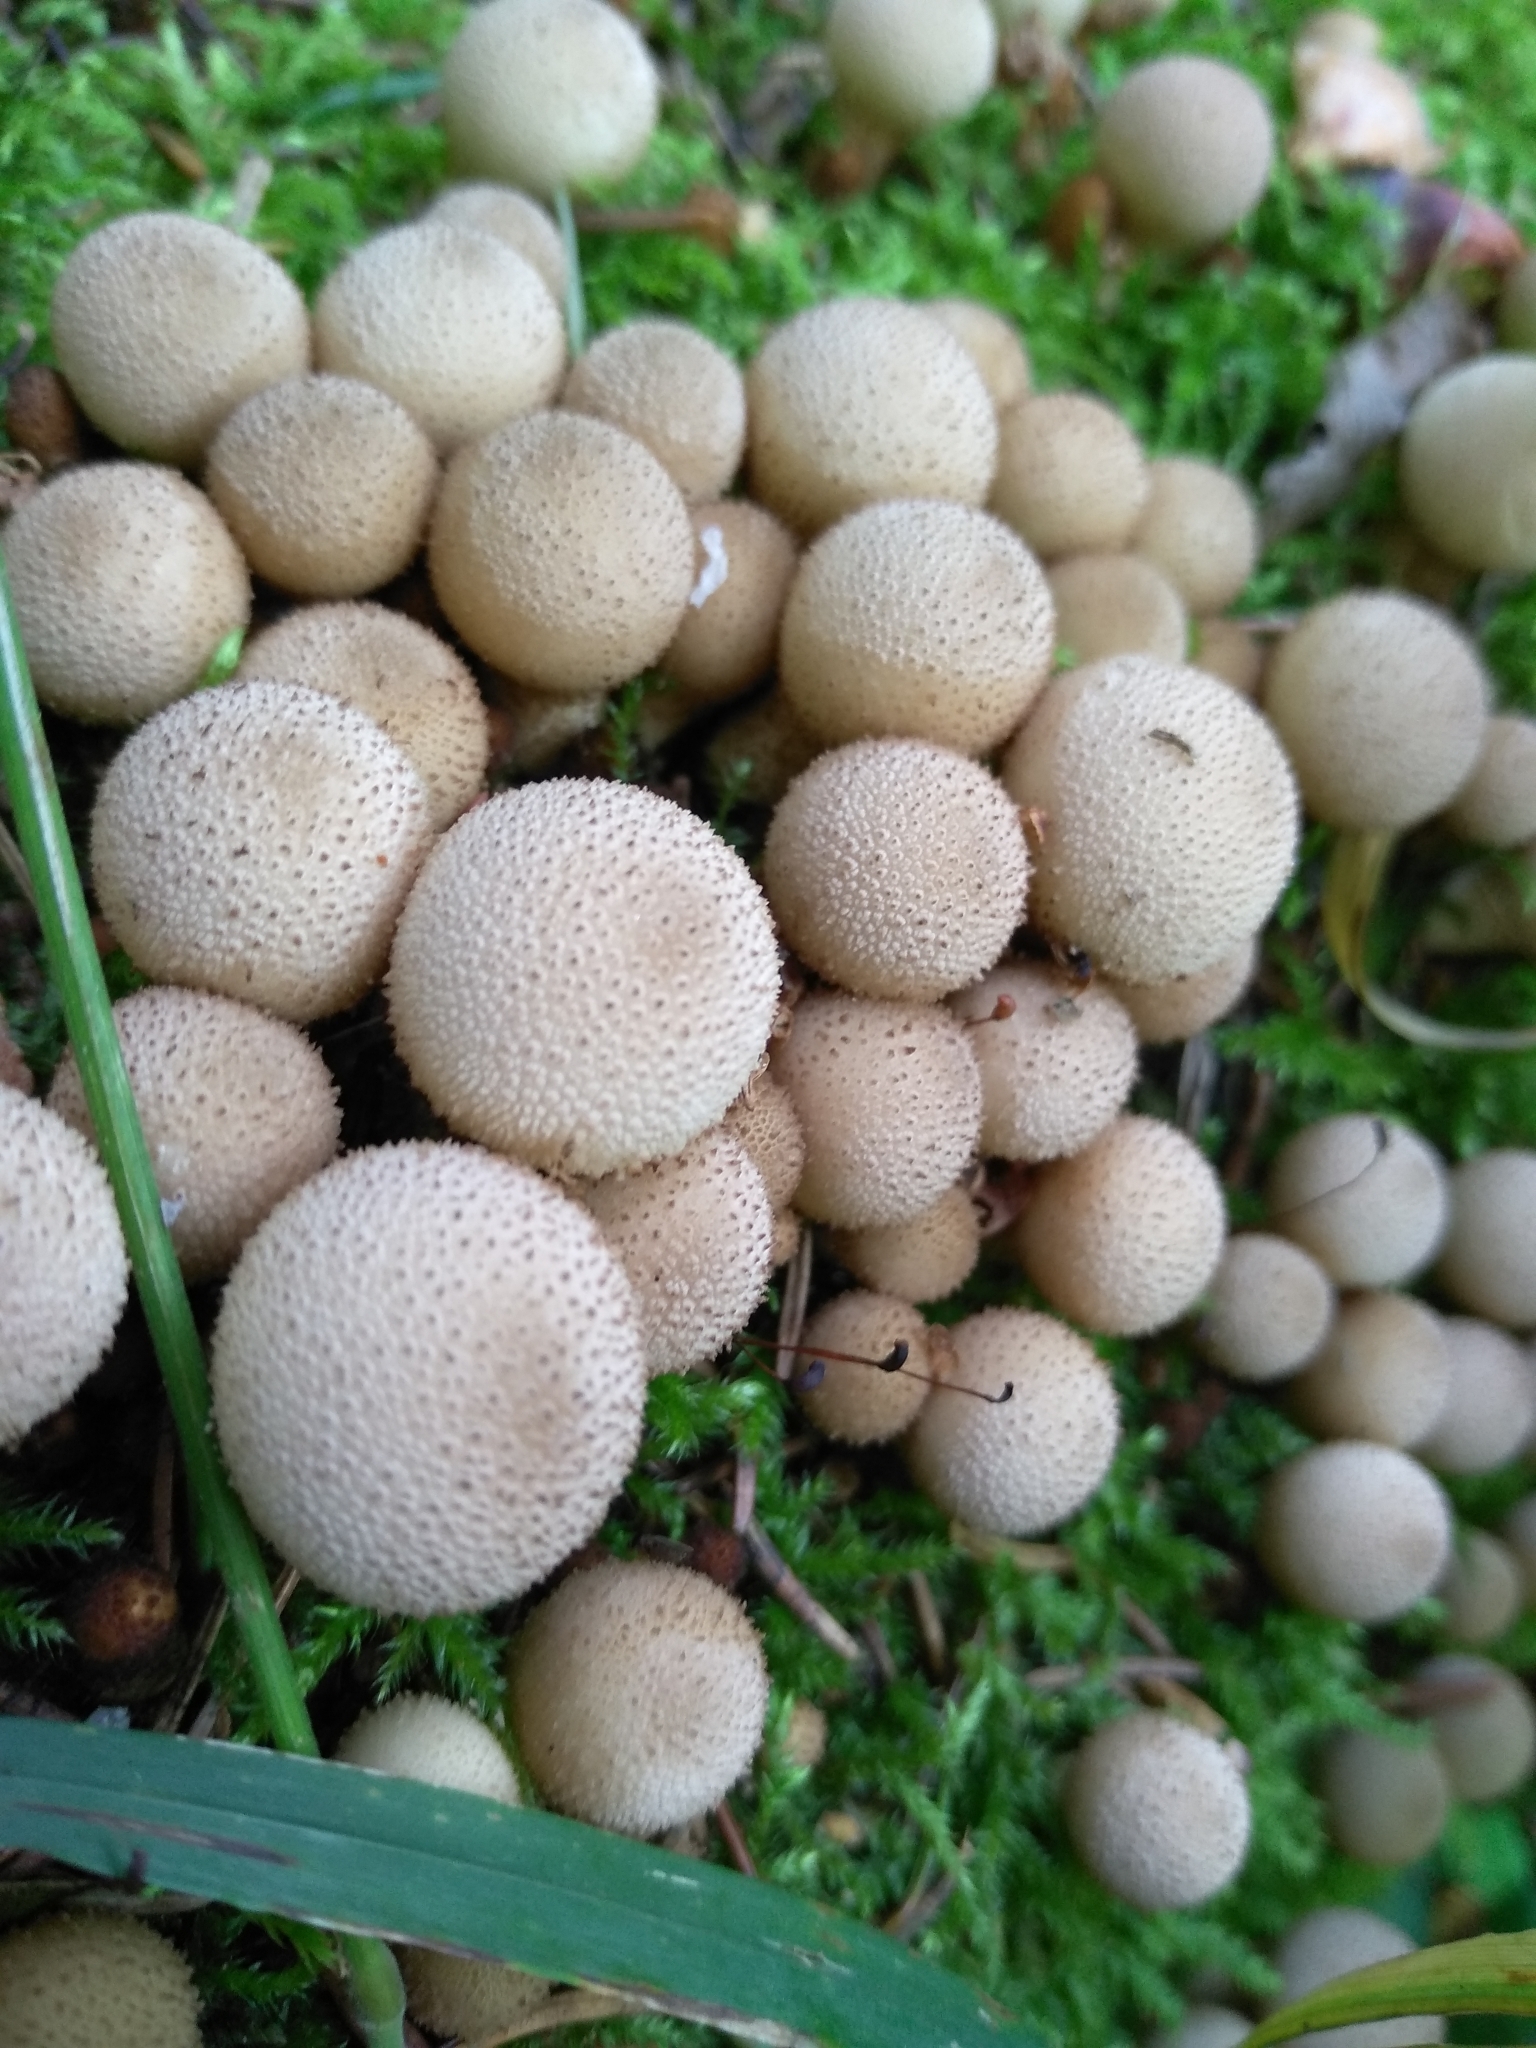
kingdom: Fungi
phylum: Basidiomycota
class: Agaricomycetes
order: Agaricales
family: Lycoperdaceae
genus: Apioperdon
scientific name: Apioperdon pyriforme
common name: Pear-shaped puffball
